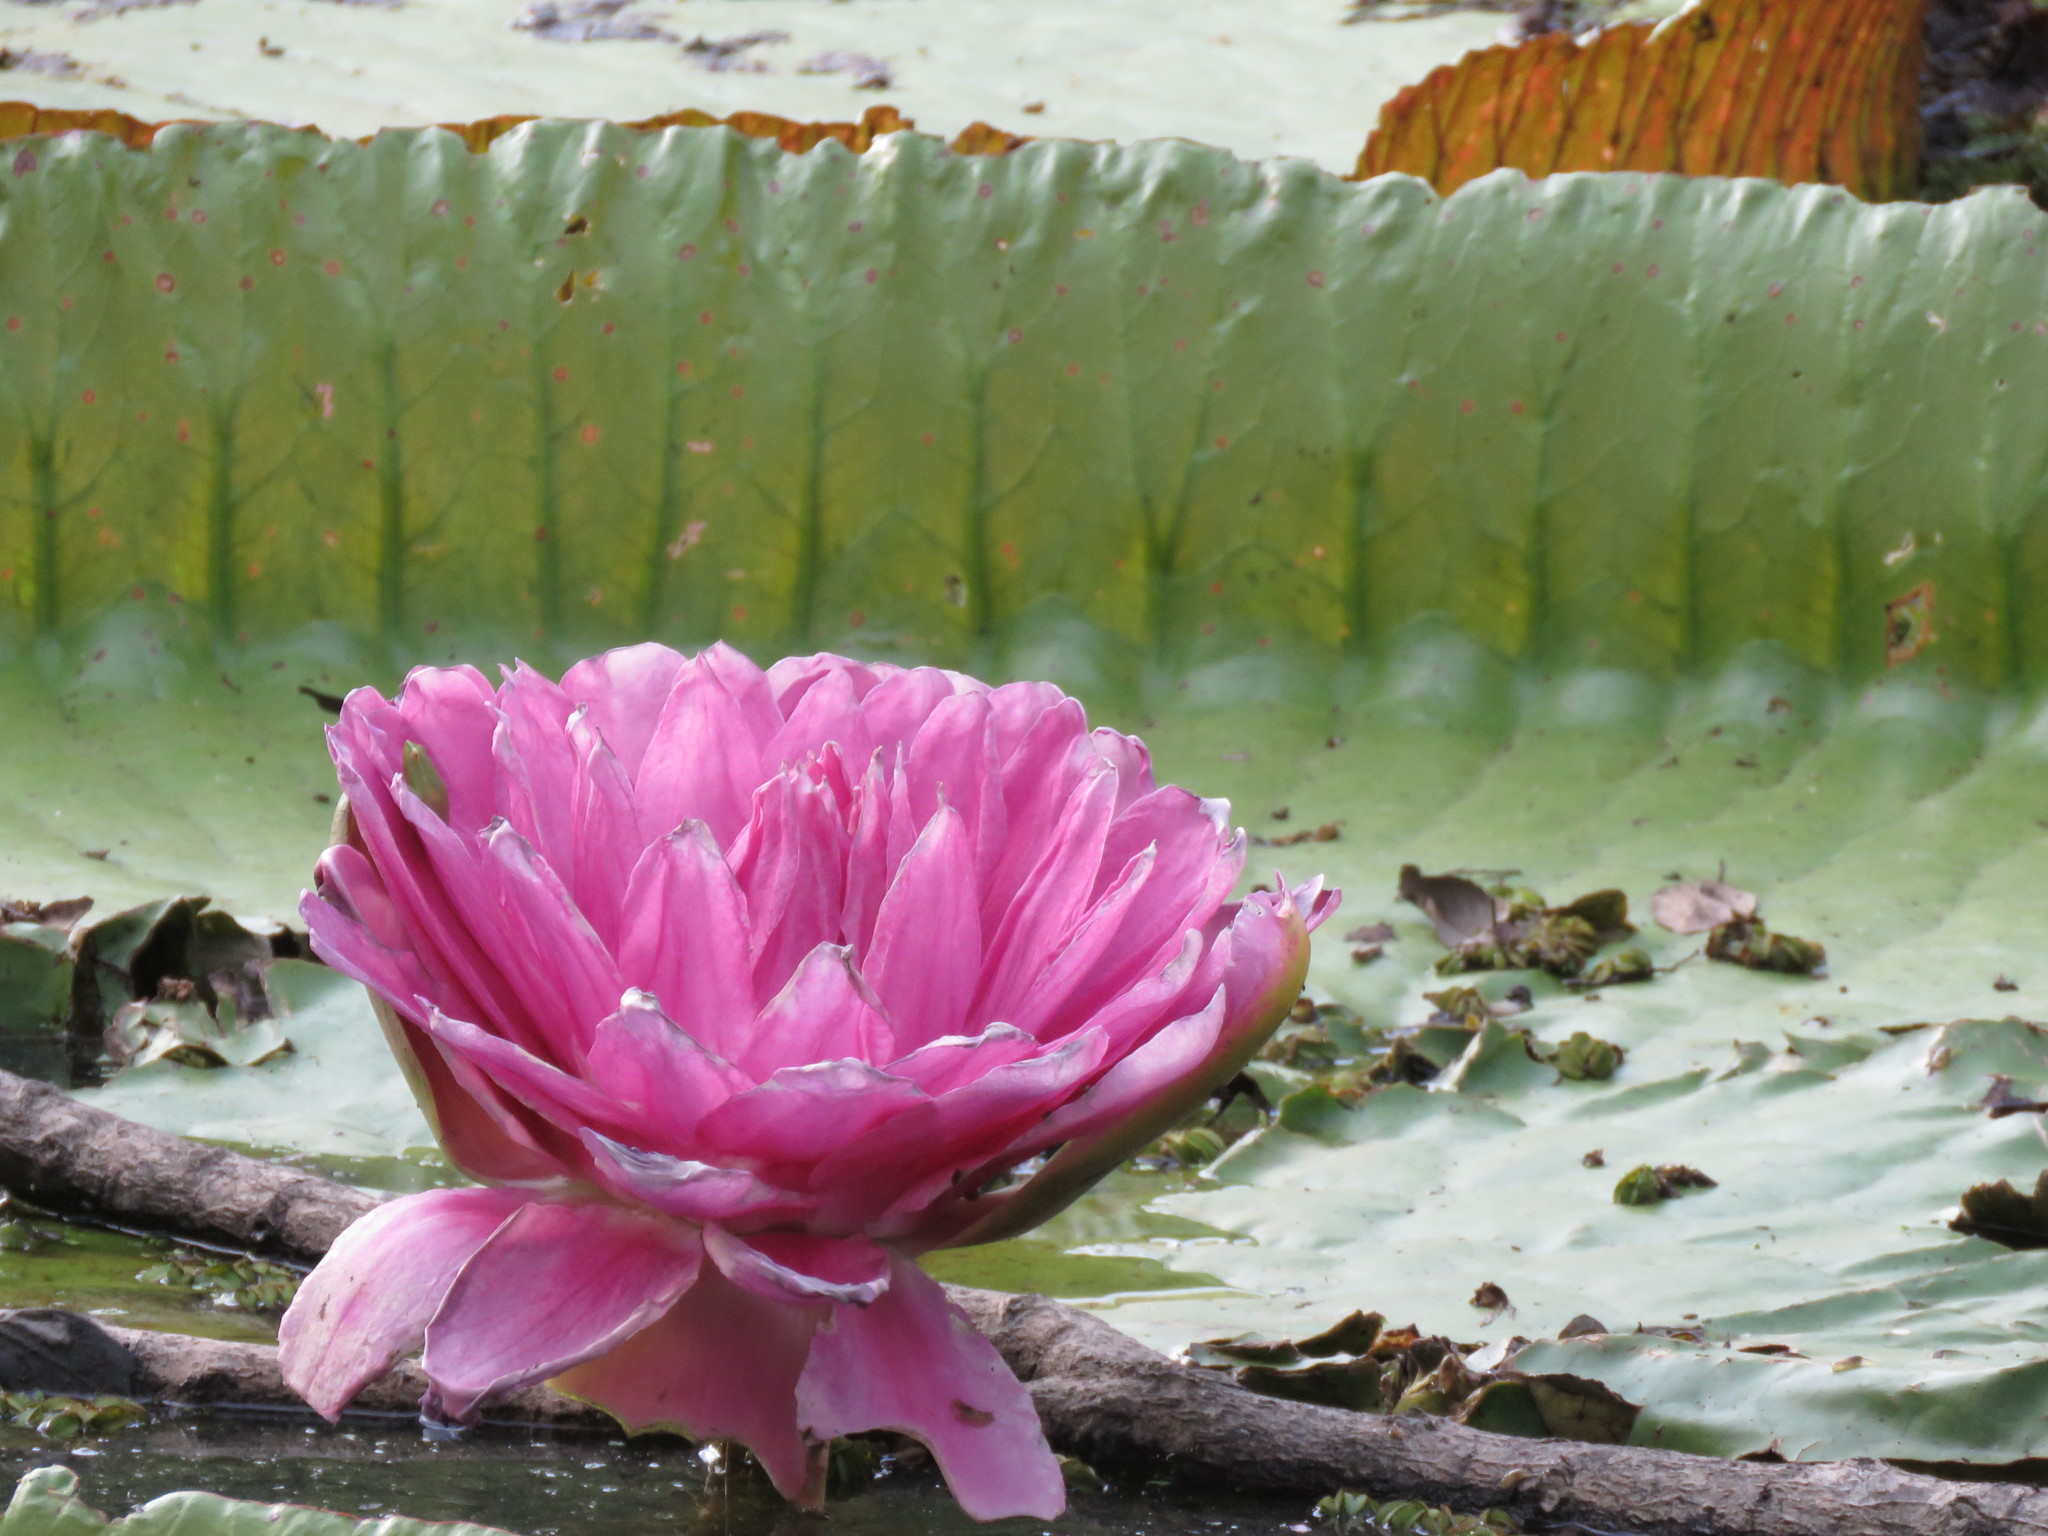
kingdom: Plantae
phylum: Tracheophyta
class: Magnoliopsida
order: Nymphaeales
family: Nymphaeaceae
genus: Victoria
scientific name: Victoria boliviana
